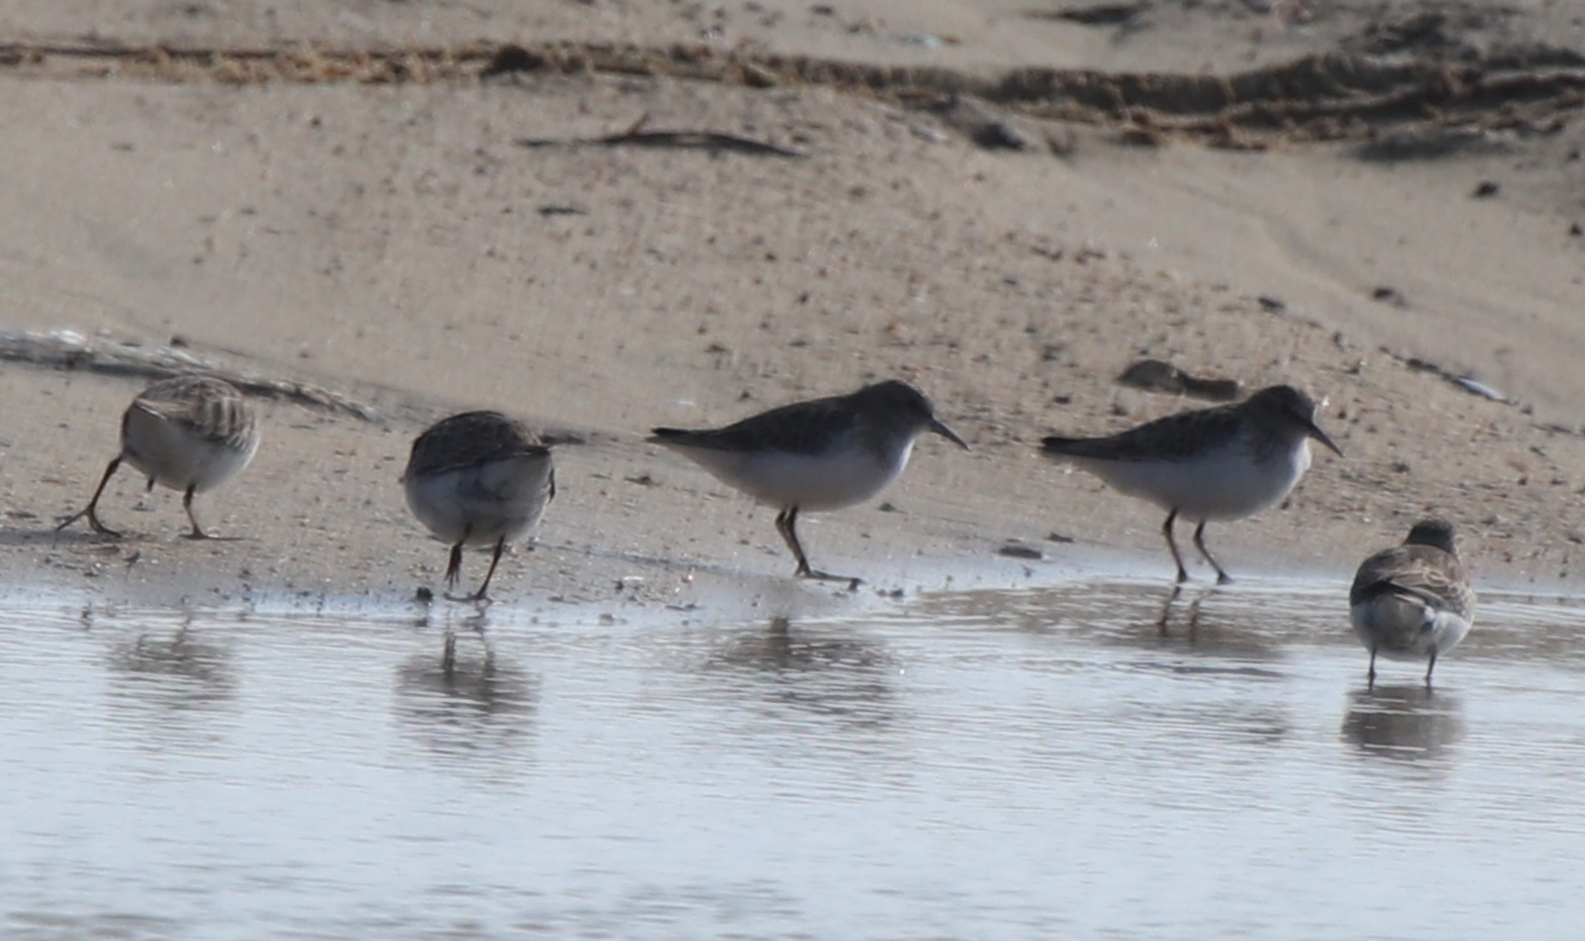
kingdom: Animalia
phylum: Chordata
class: Aves
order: Charadriiformes
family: Scolopacidae
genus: Calidris
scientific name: Calidris minutilla
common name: Least sandpiper
